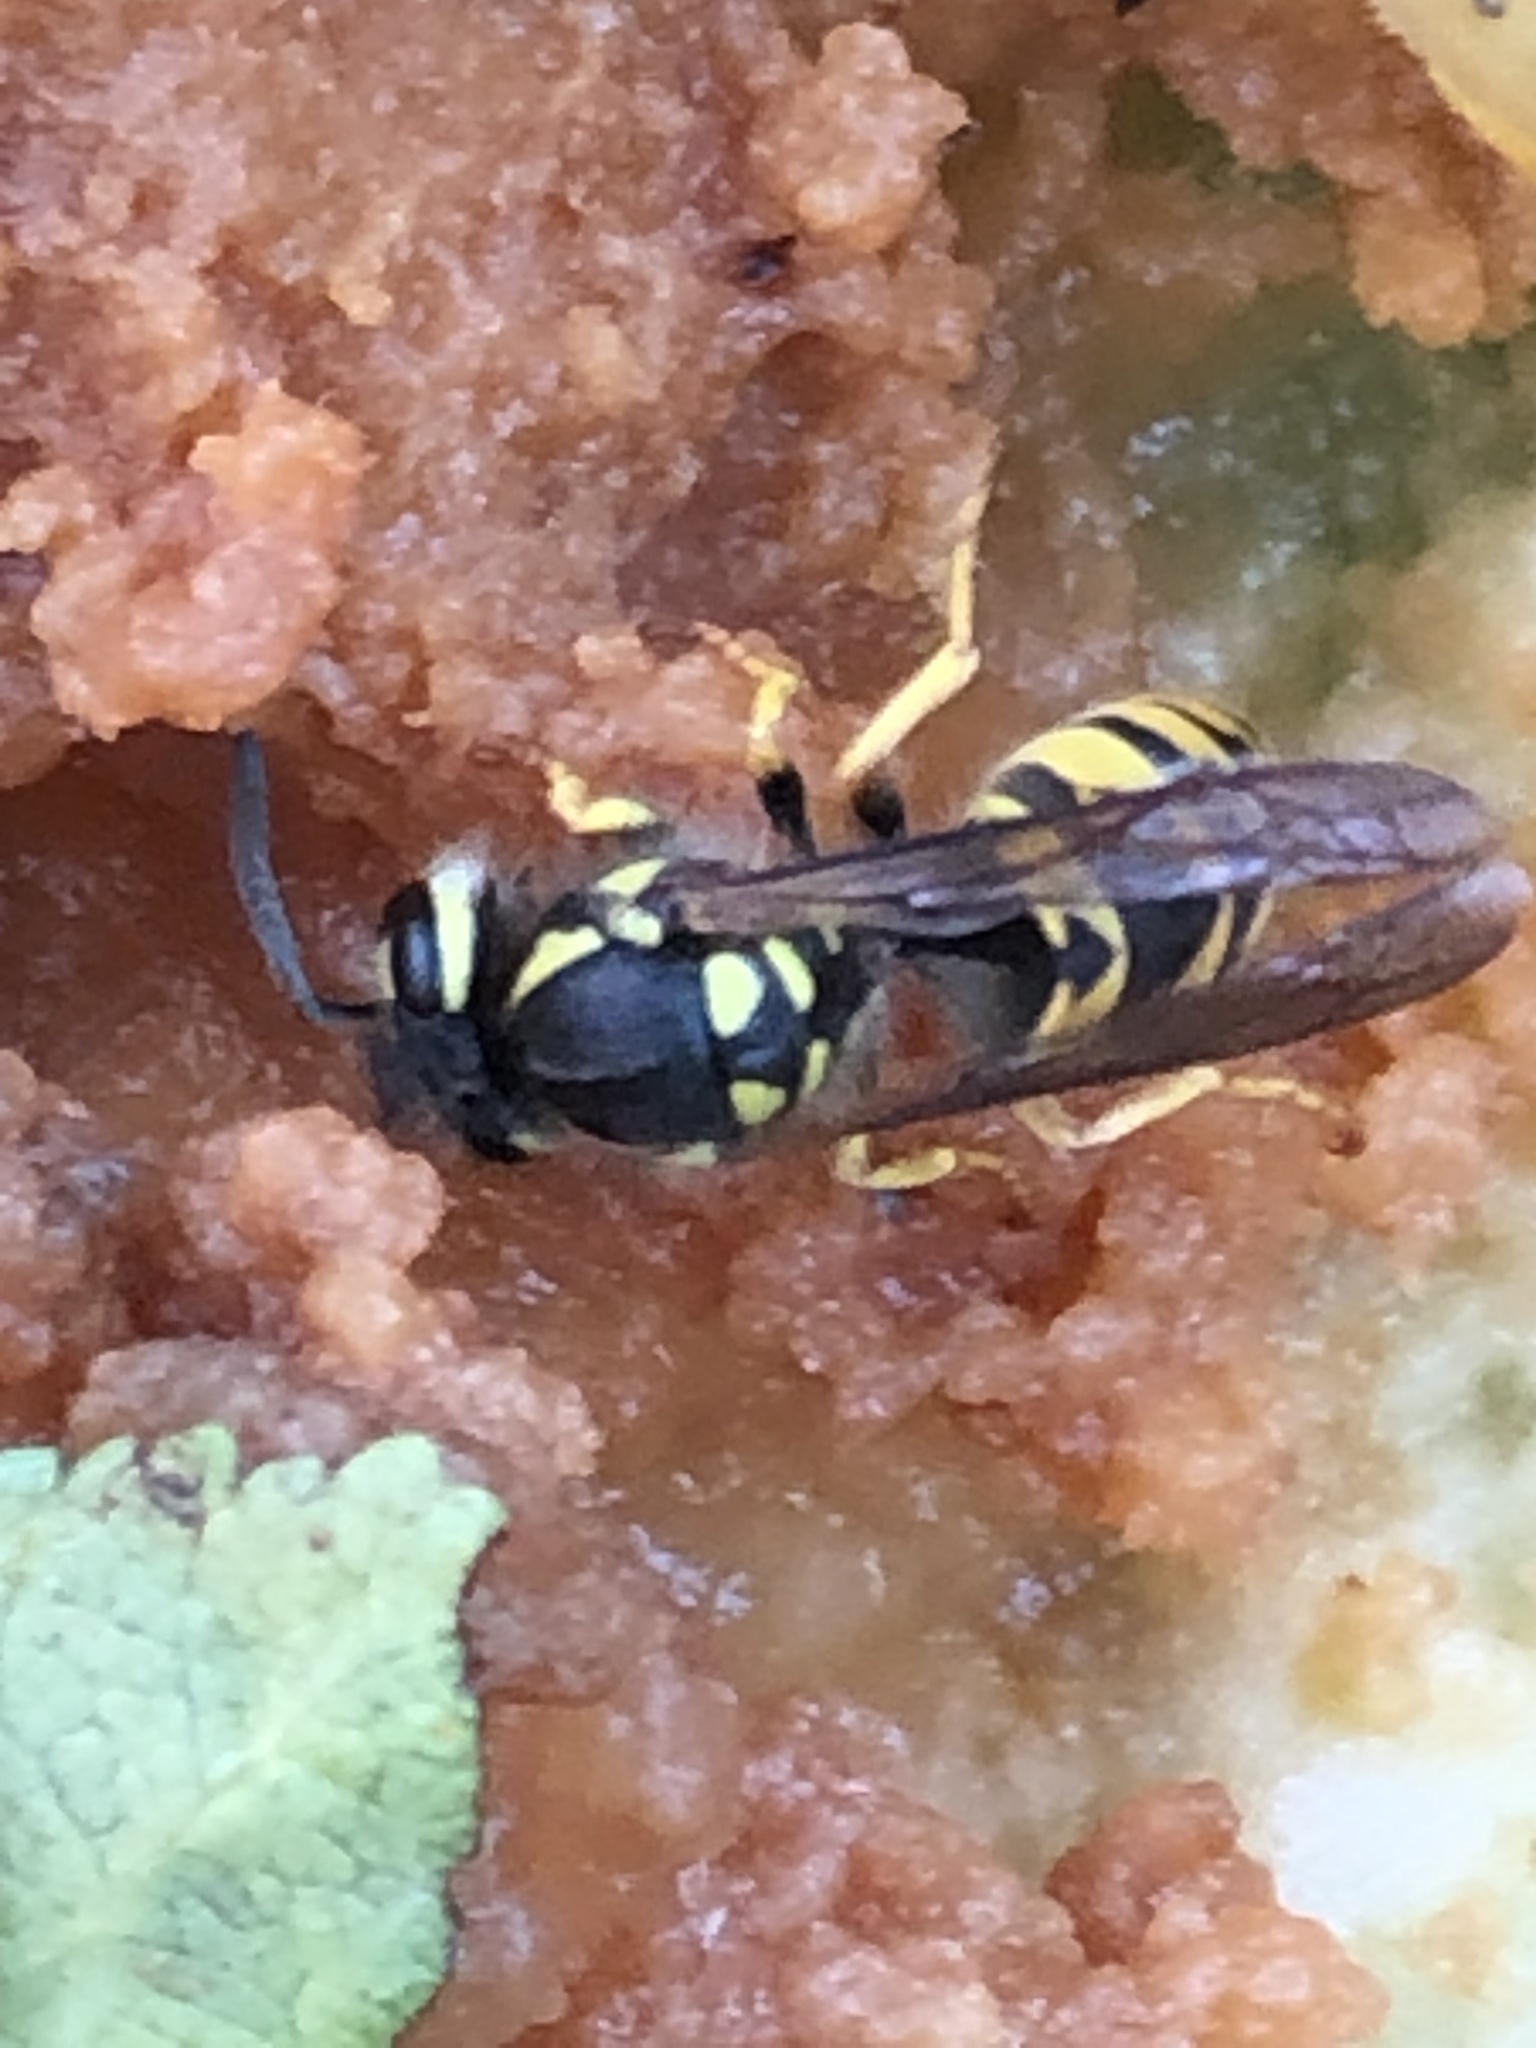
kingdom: Animalia
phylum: Arthropoda
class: Insecta
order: Hymenoptera
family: Vespidae
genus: Vespula
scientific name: Vespula germanica
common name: German wasp
